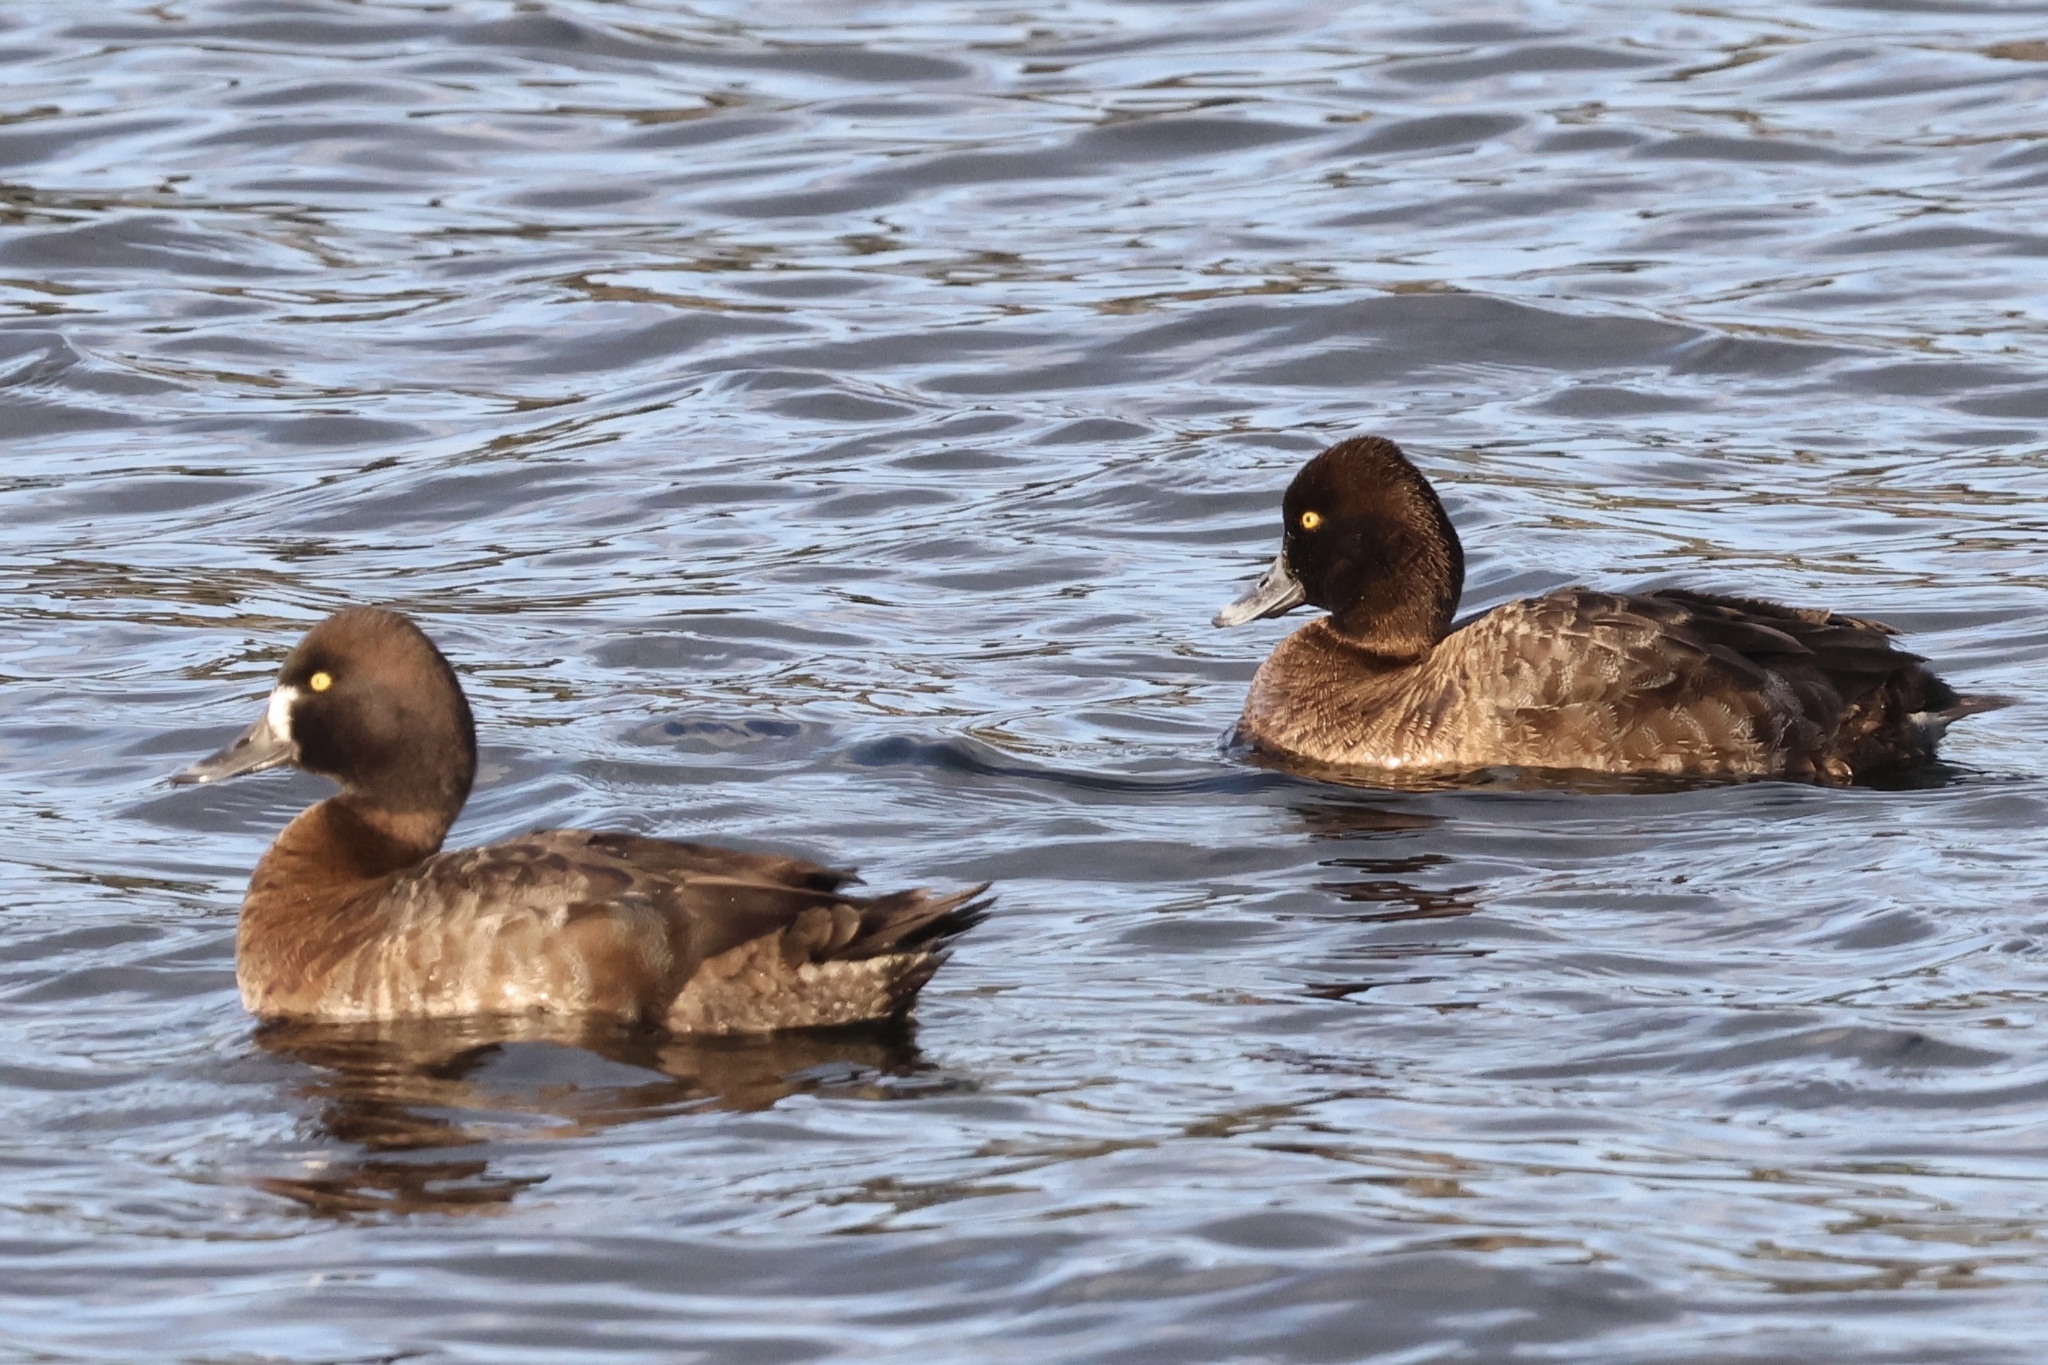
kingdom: Animalia
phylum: Chordata
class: Aves
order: Anseriformes
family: Anatidae
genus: Aythya
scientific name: Aythya affinis
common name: Lesser scaup
